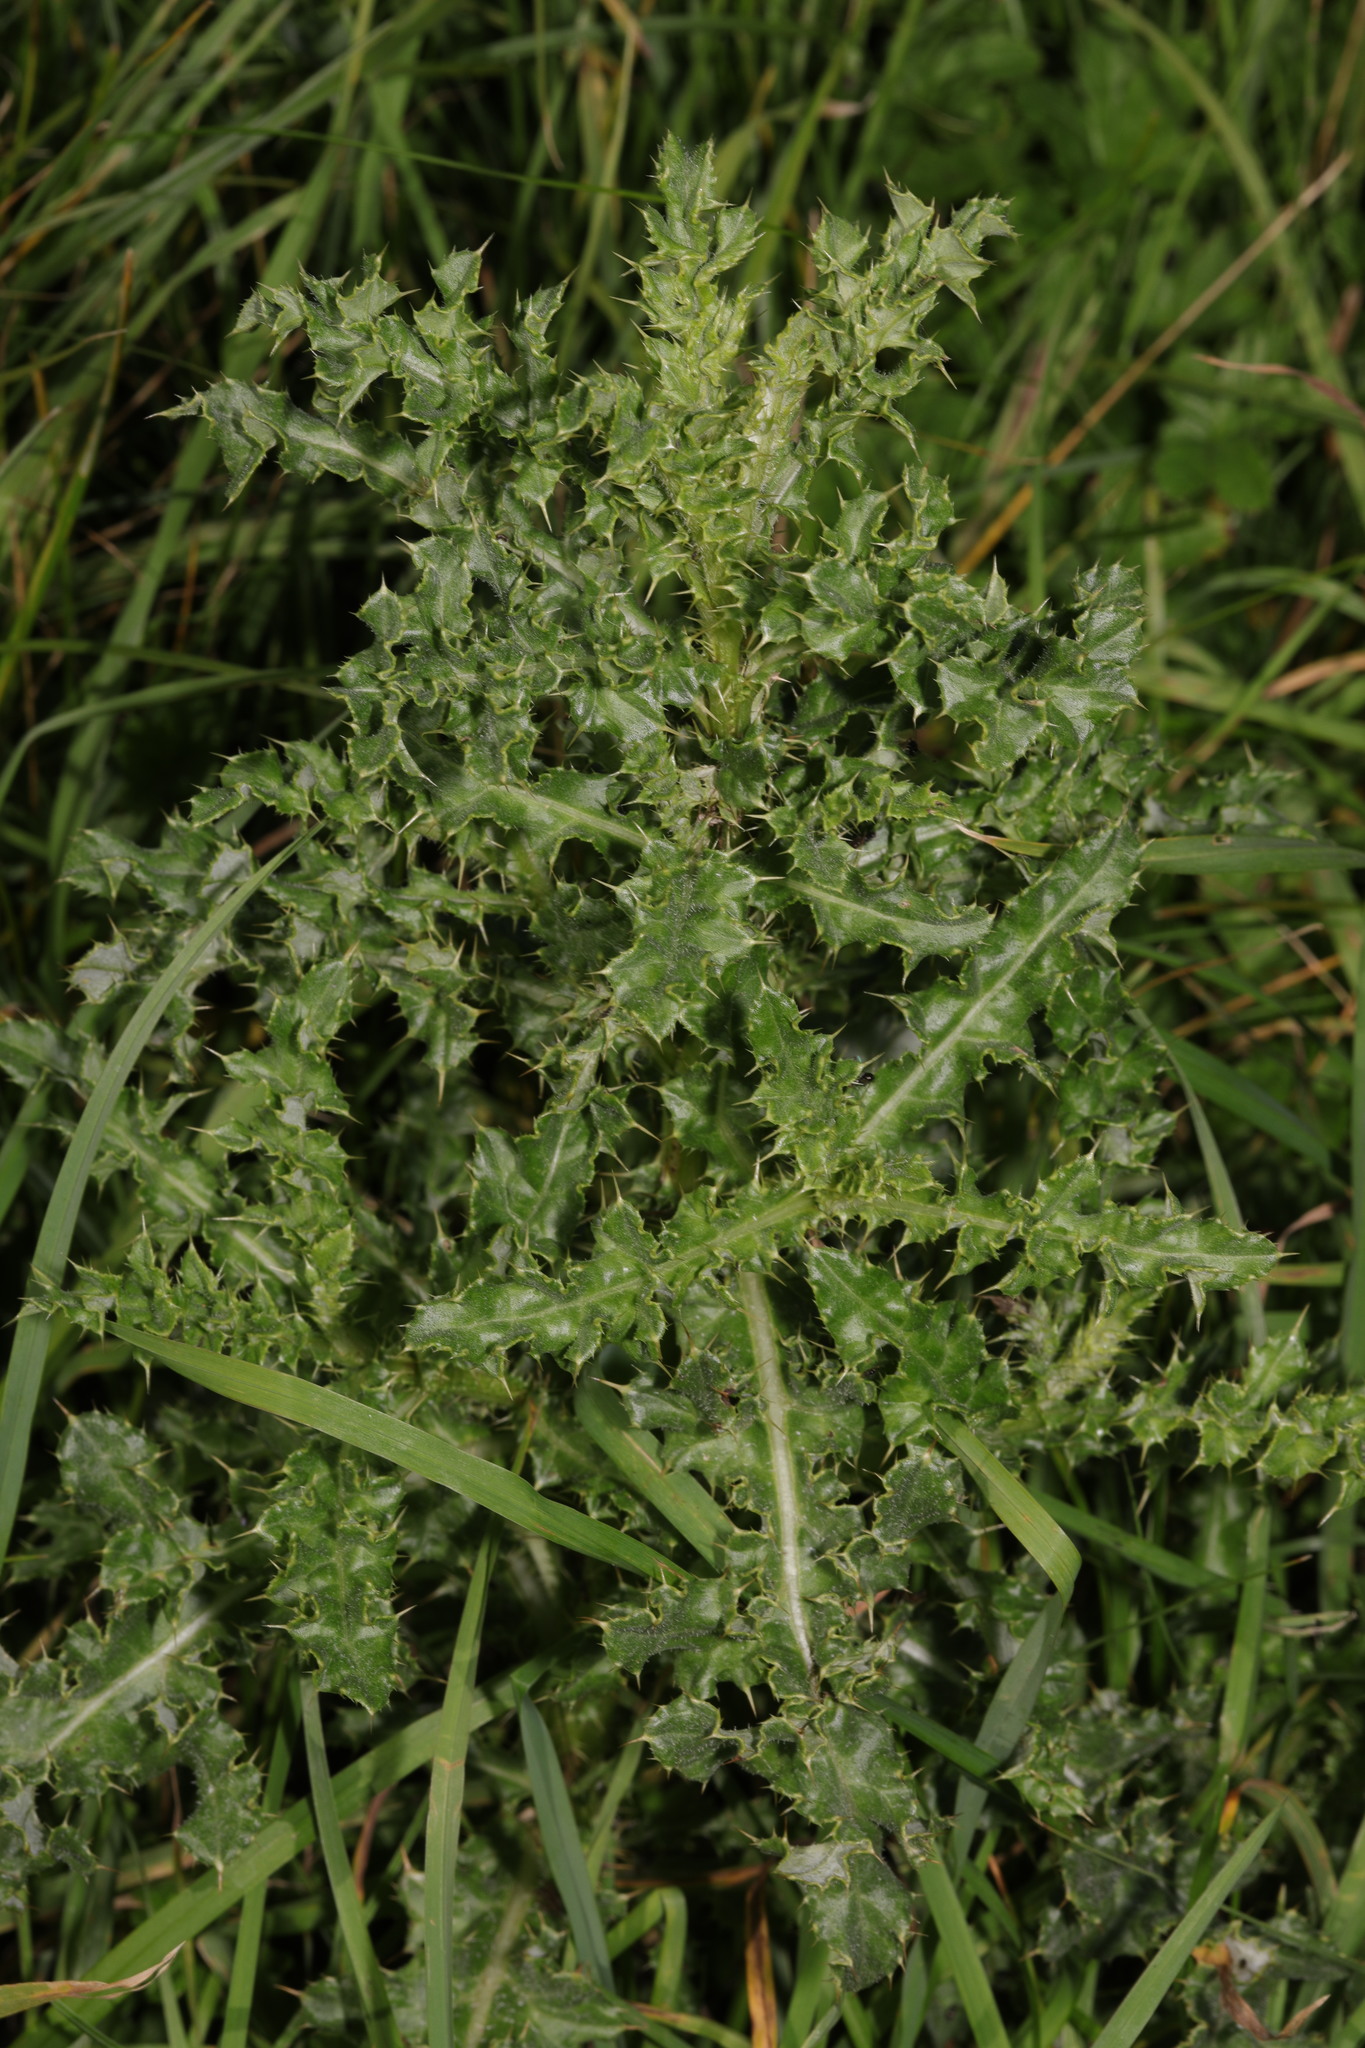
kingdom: Plantae
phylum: Tracheophyta
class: Magnoliopsida
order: Asterales
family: Asteraceae
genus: Cirsium
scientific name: Cirsium arvense
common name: Creeping thistle
